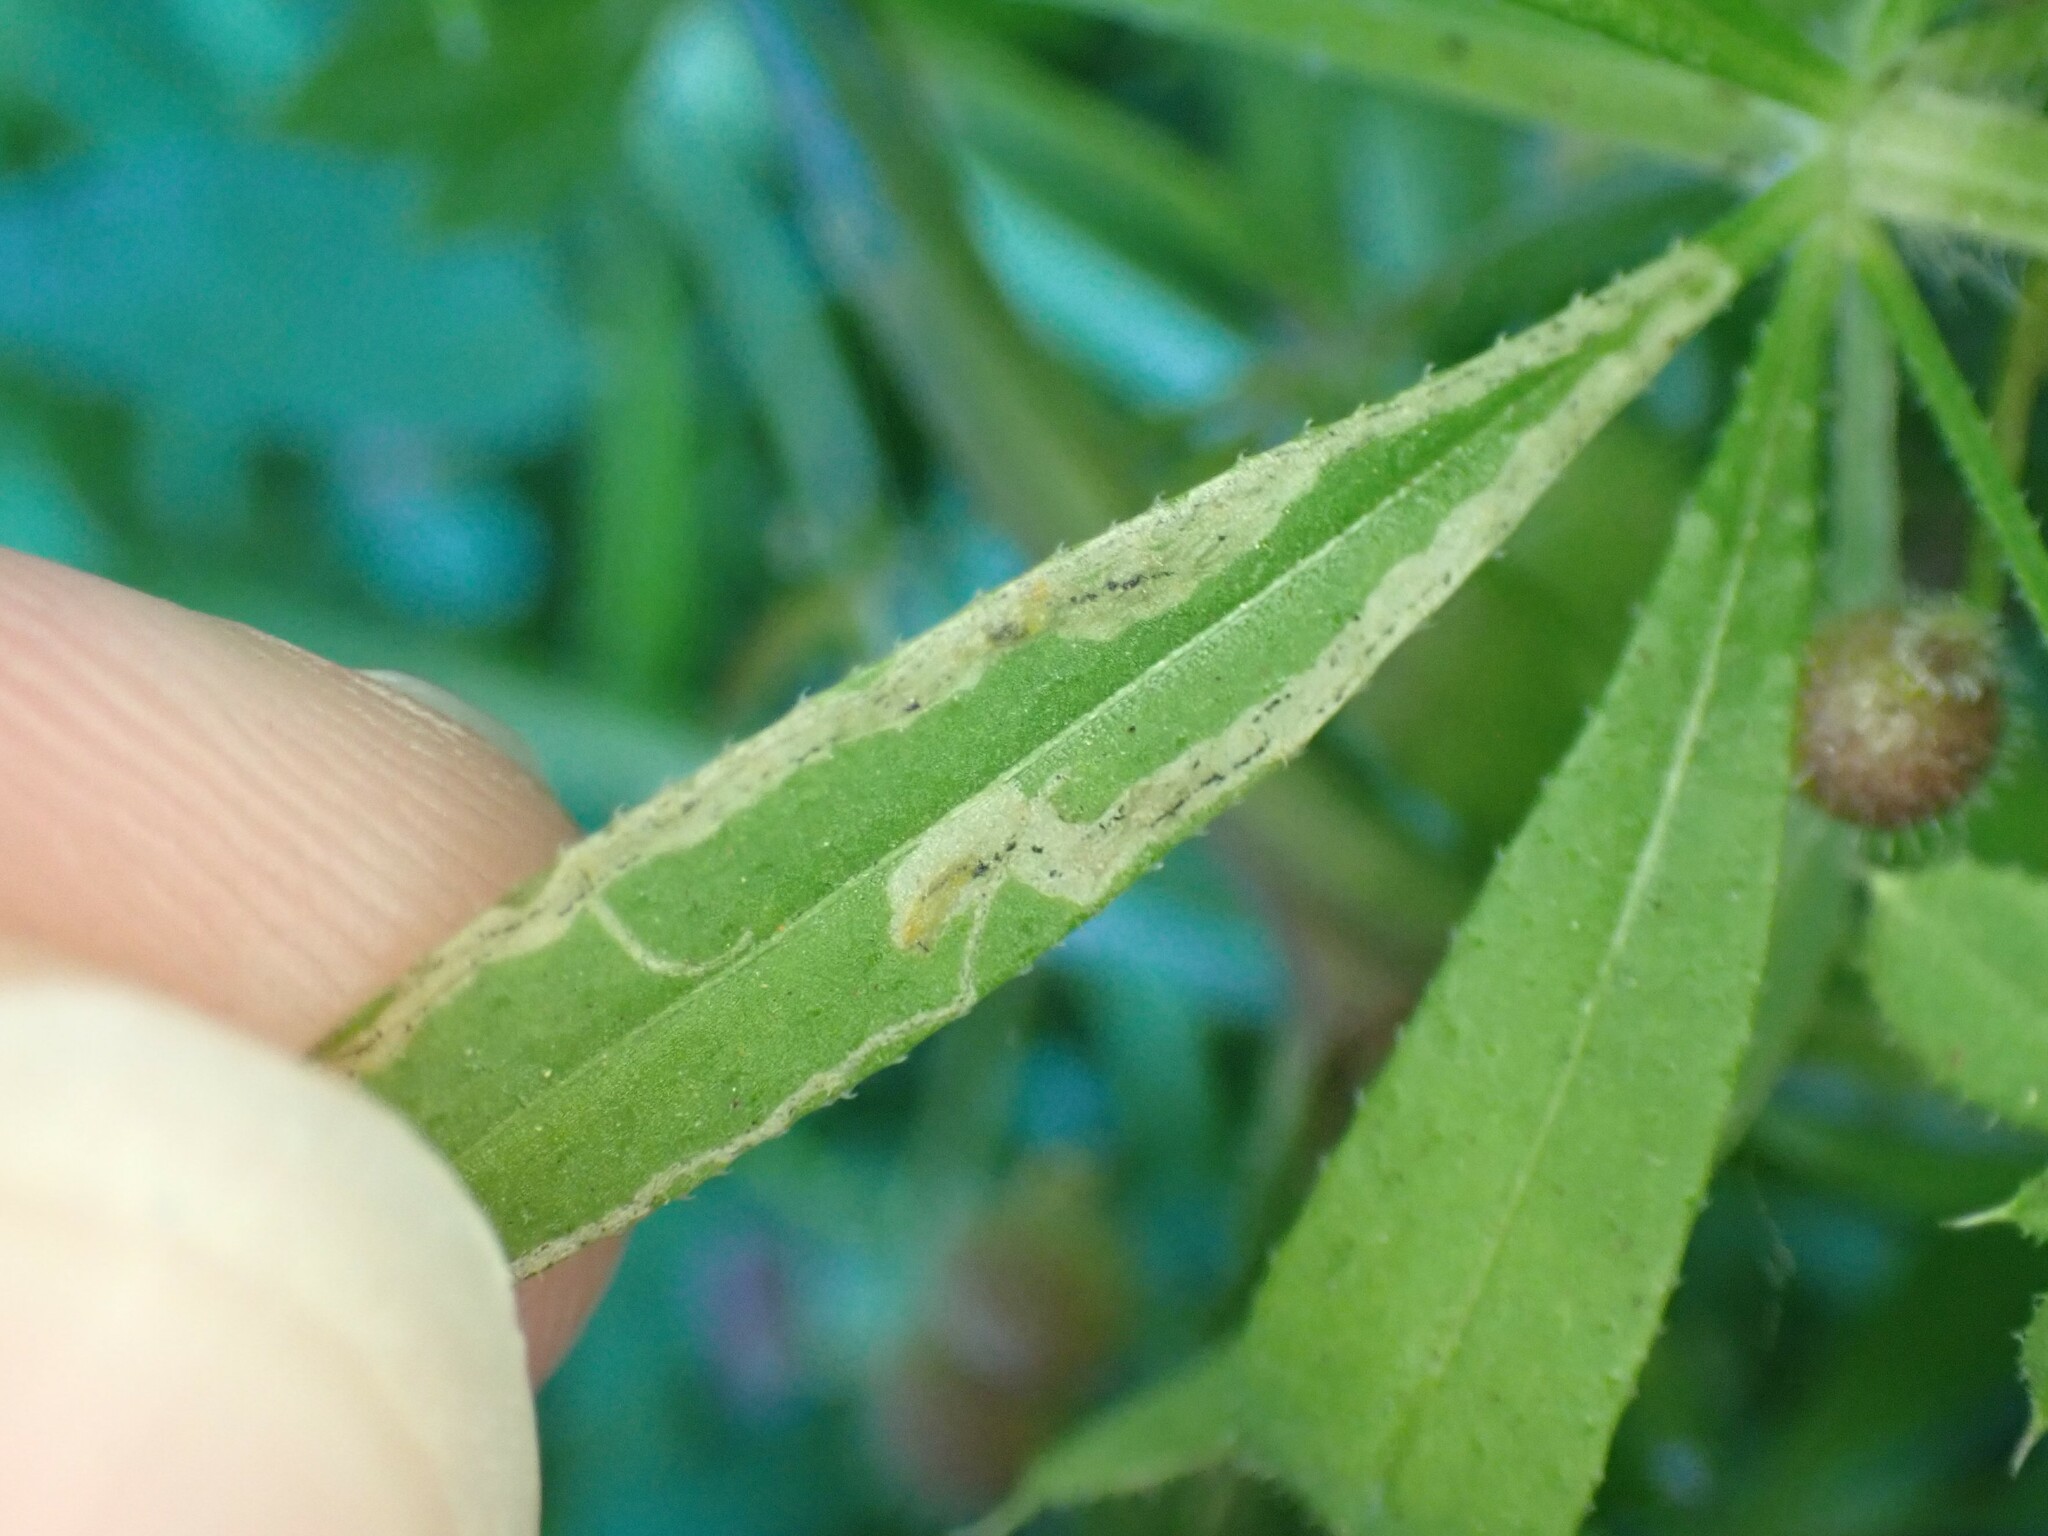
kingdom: Animalia
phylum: Arthropoda
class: Insecta
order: Diptera
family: Agromyzidae
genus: Liriomyza
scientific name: Liriomyza galiivora
